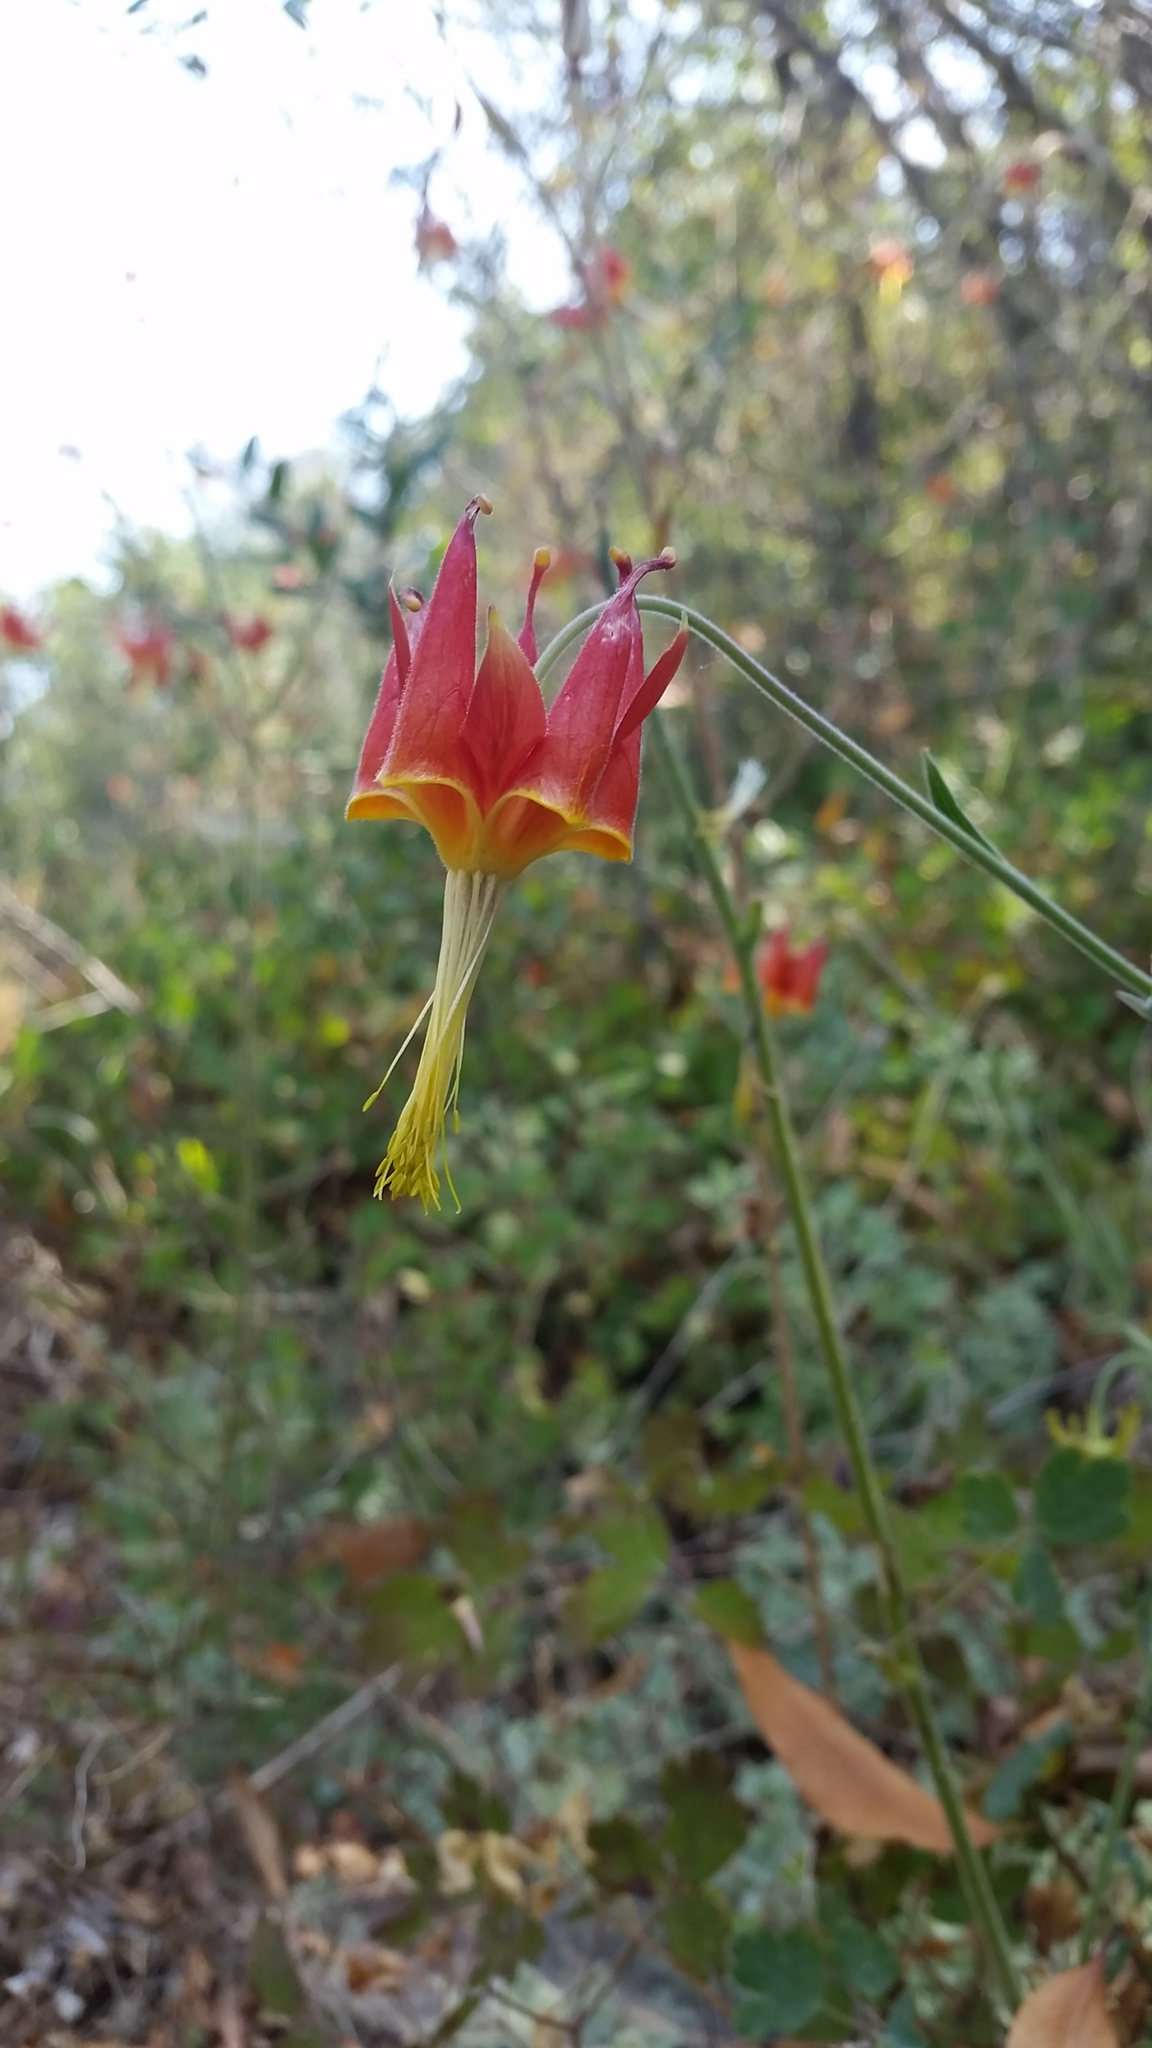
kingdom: Plantae
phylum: Tracheophyta
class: Magnoliopsida
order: Ranunculales
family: Ranunculaceae
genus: Aquilegia
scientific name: Aquilegia eximia
